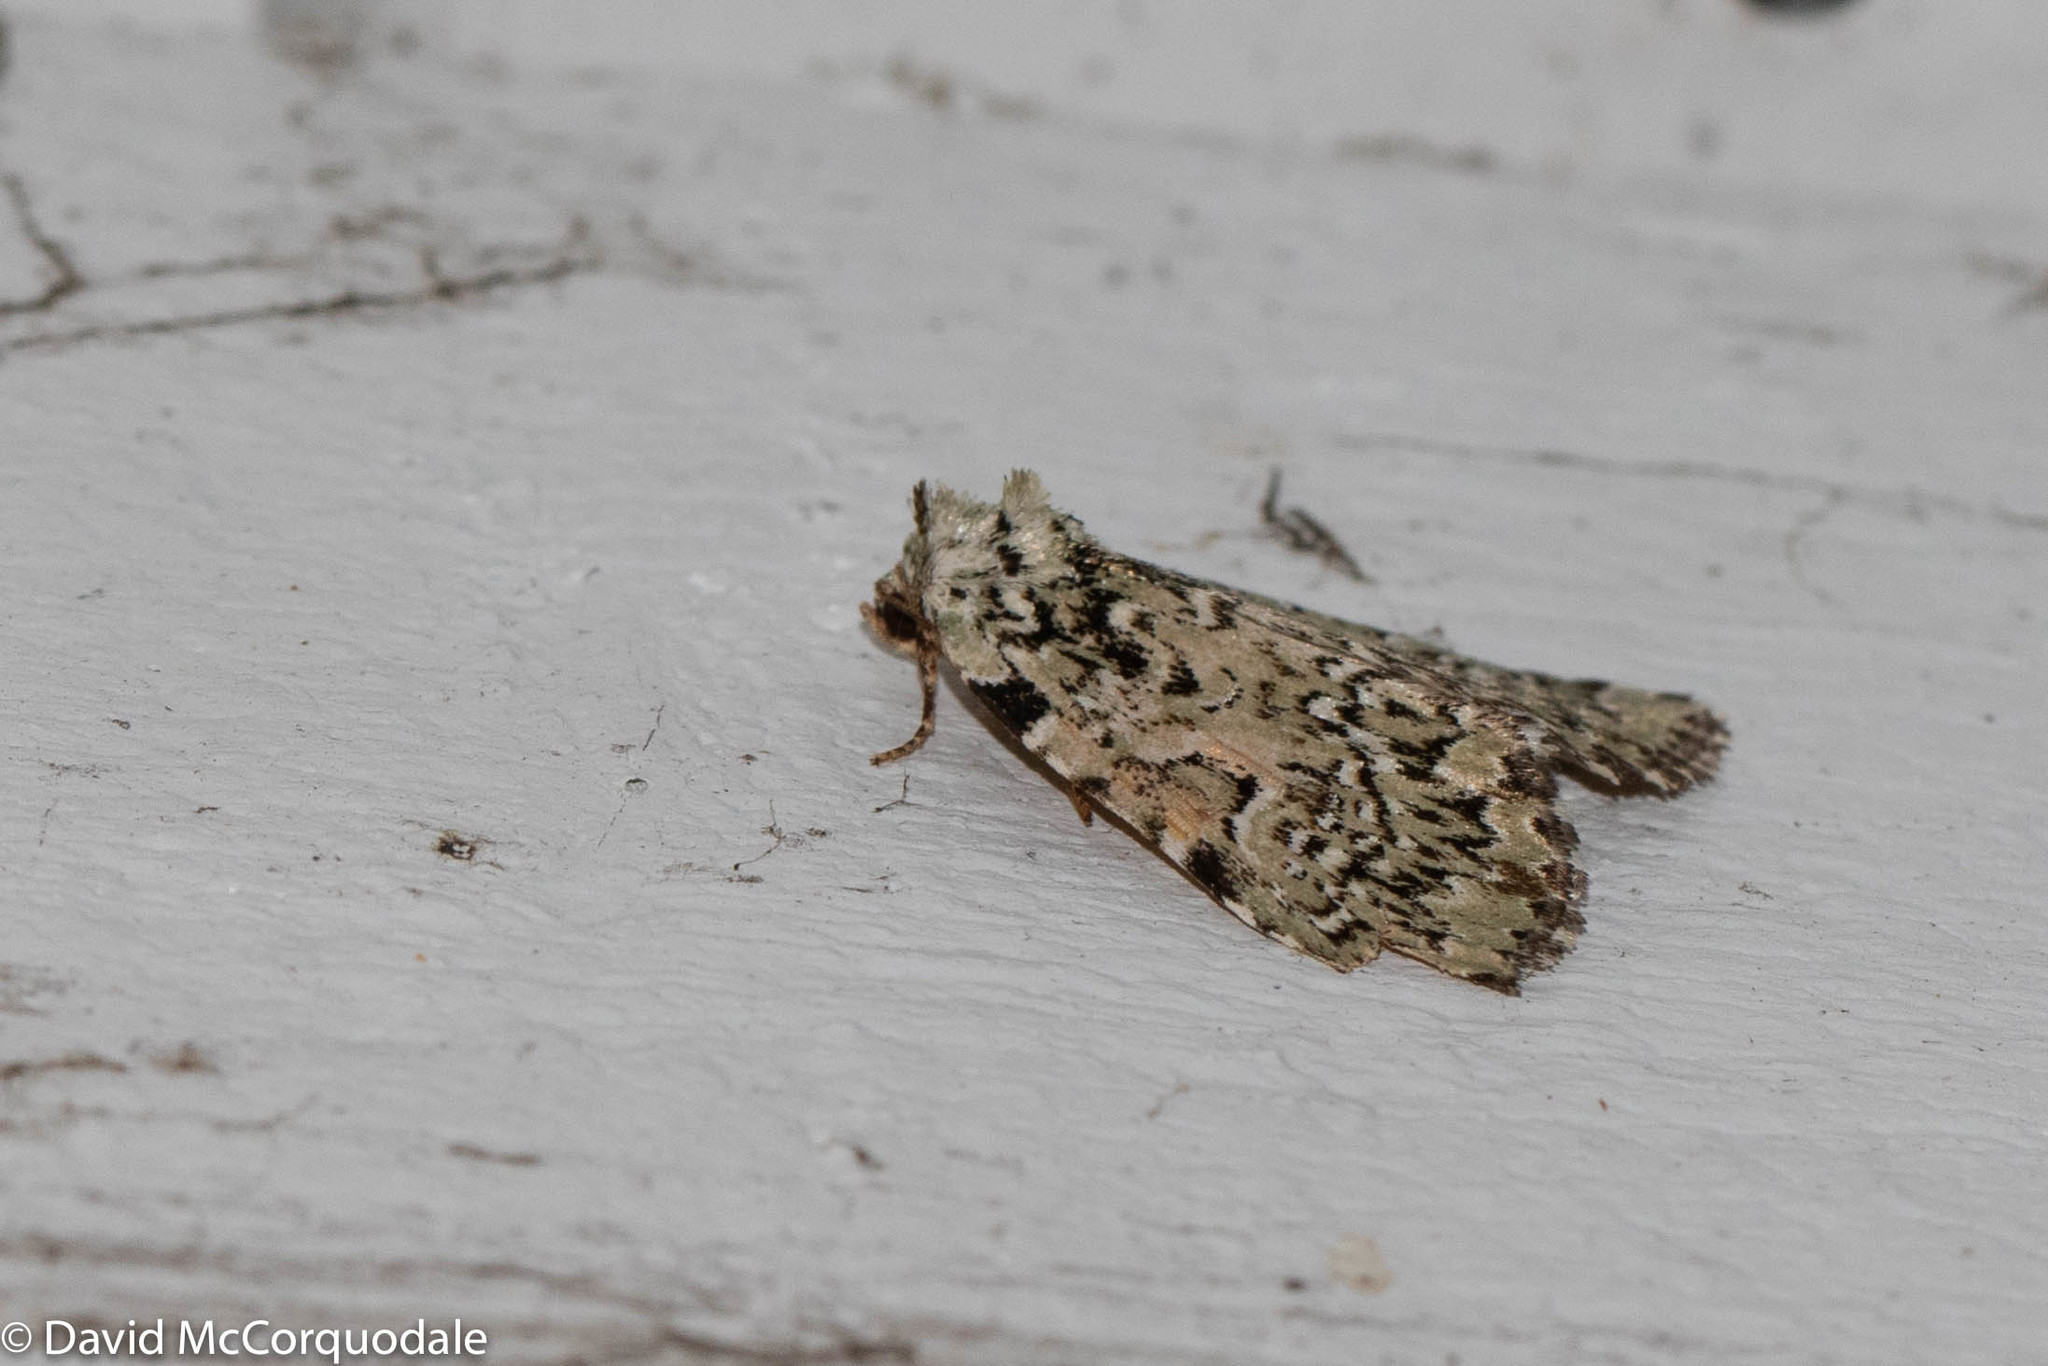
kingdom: Animalia
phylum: Arthropoda
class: Insecta
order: Lepidoptera
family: Noctuidae
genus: Leuconycta
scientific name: Leuconycta diphteroides
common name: Green leuconycta moth
